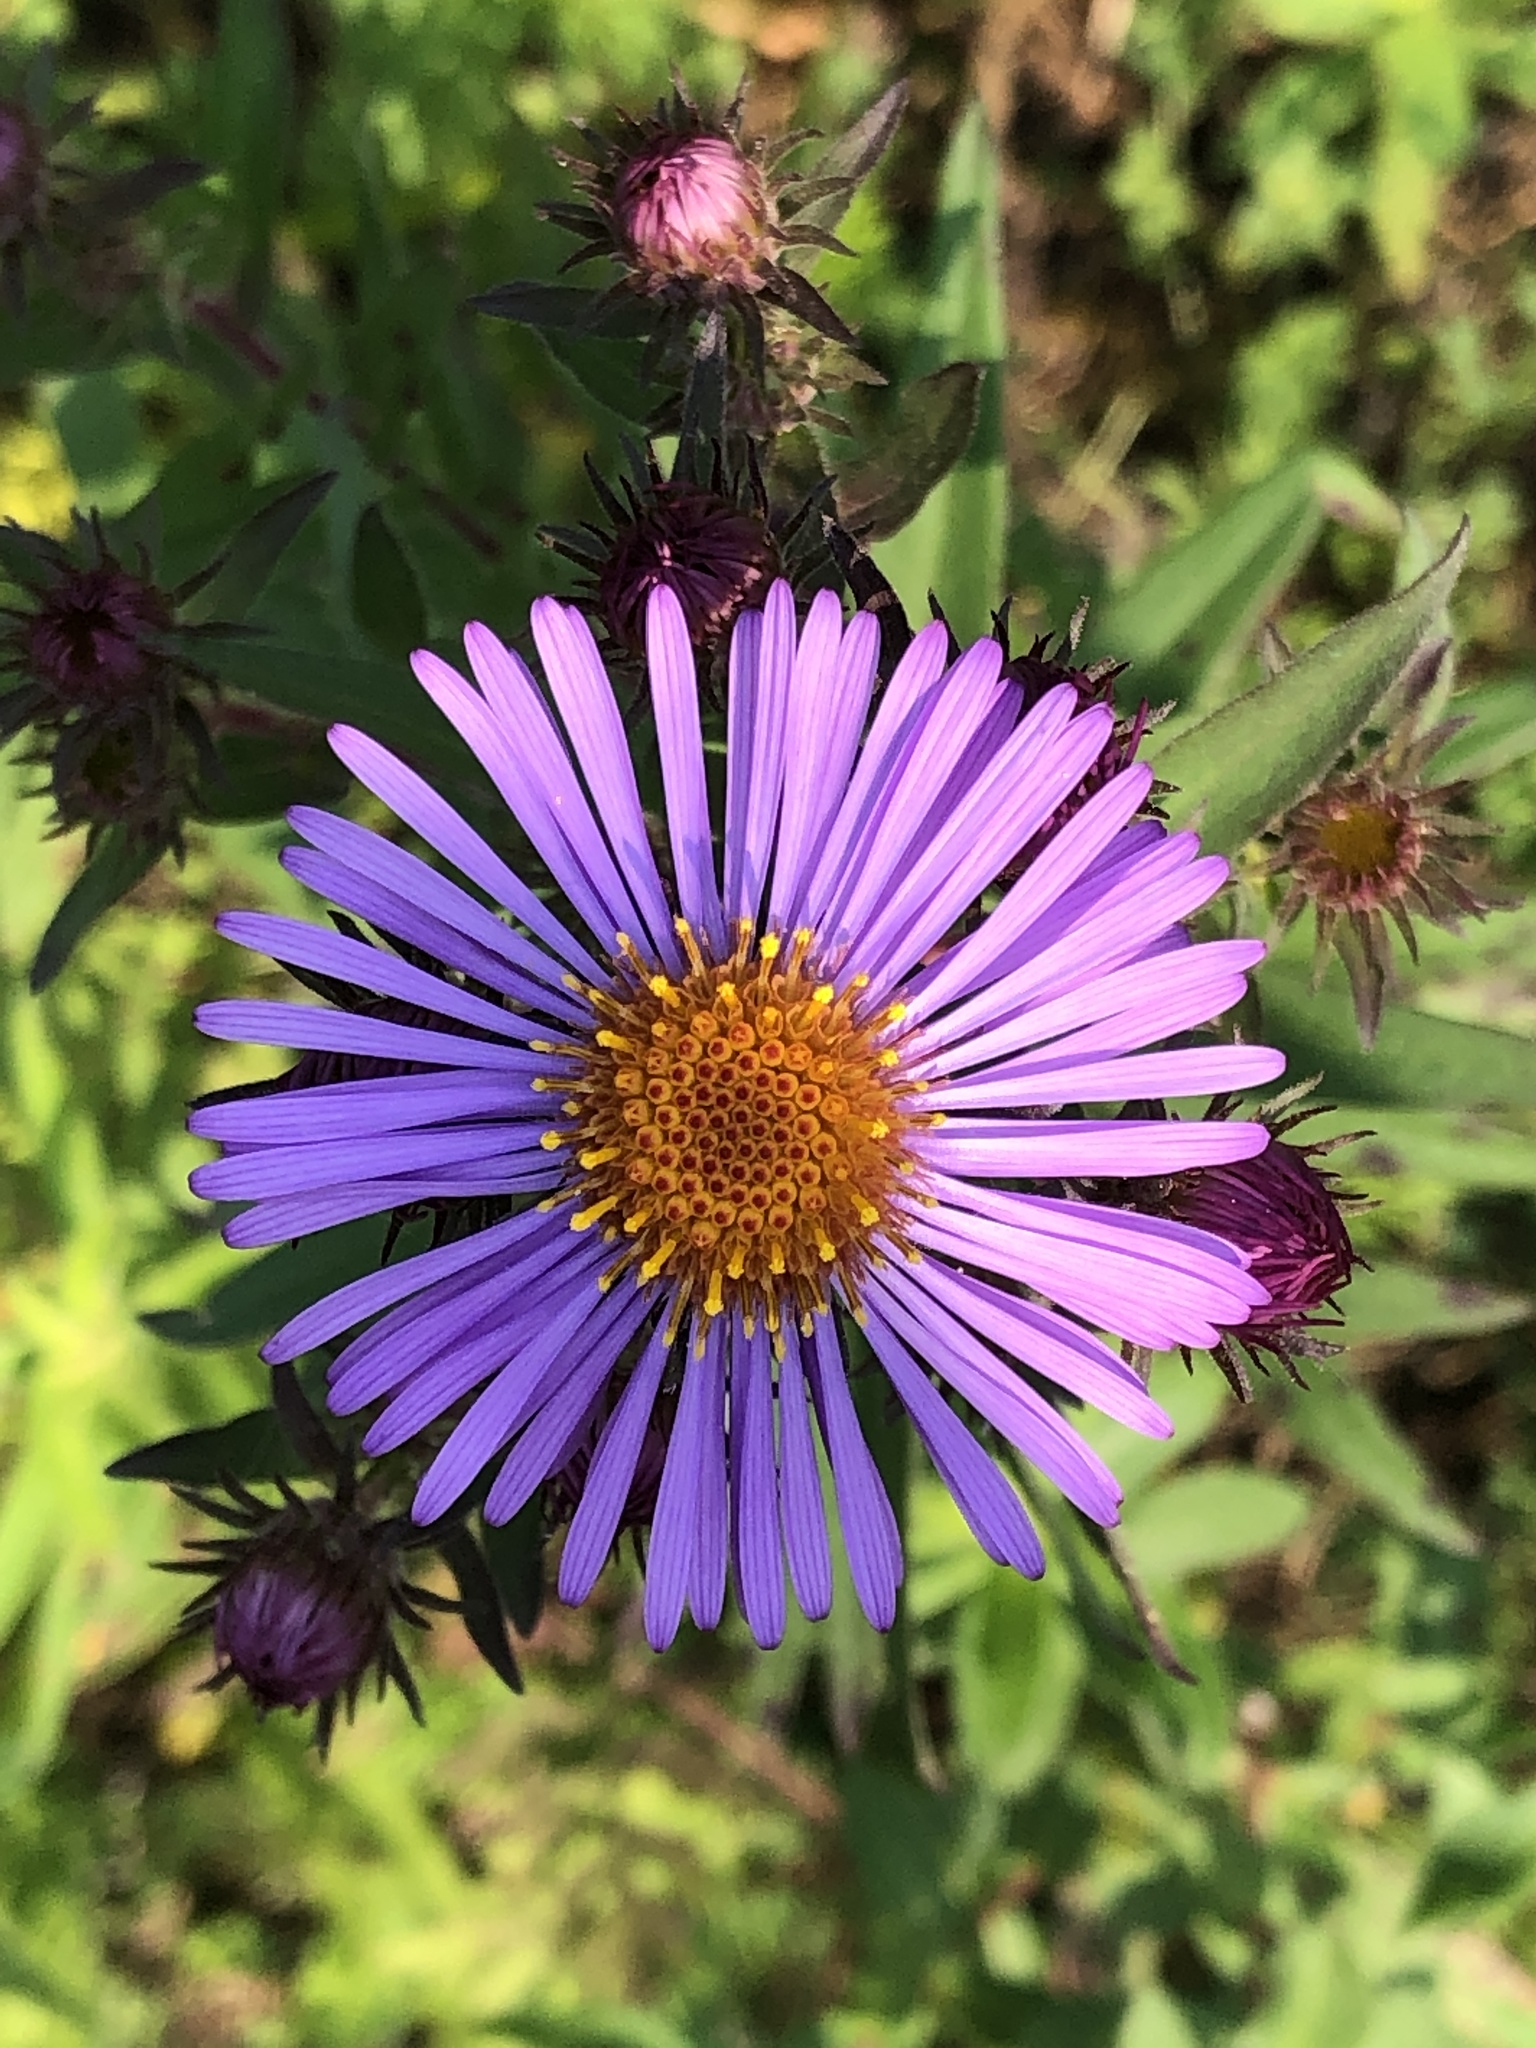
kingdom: Plantae
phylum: Tracheophyta
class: Magnoliopsida
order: Asterales
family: Asteraceae
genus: Symphyotrichum
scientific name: Symphyotrichum novae-angliae
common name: Michaelmas daisy
